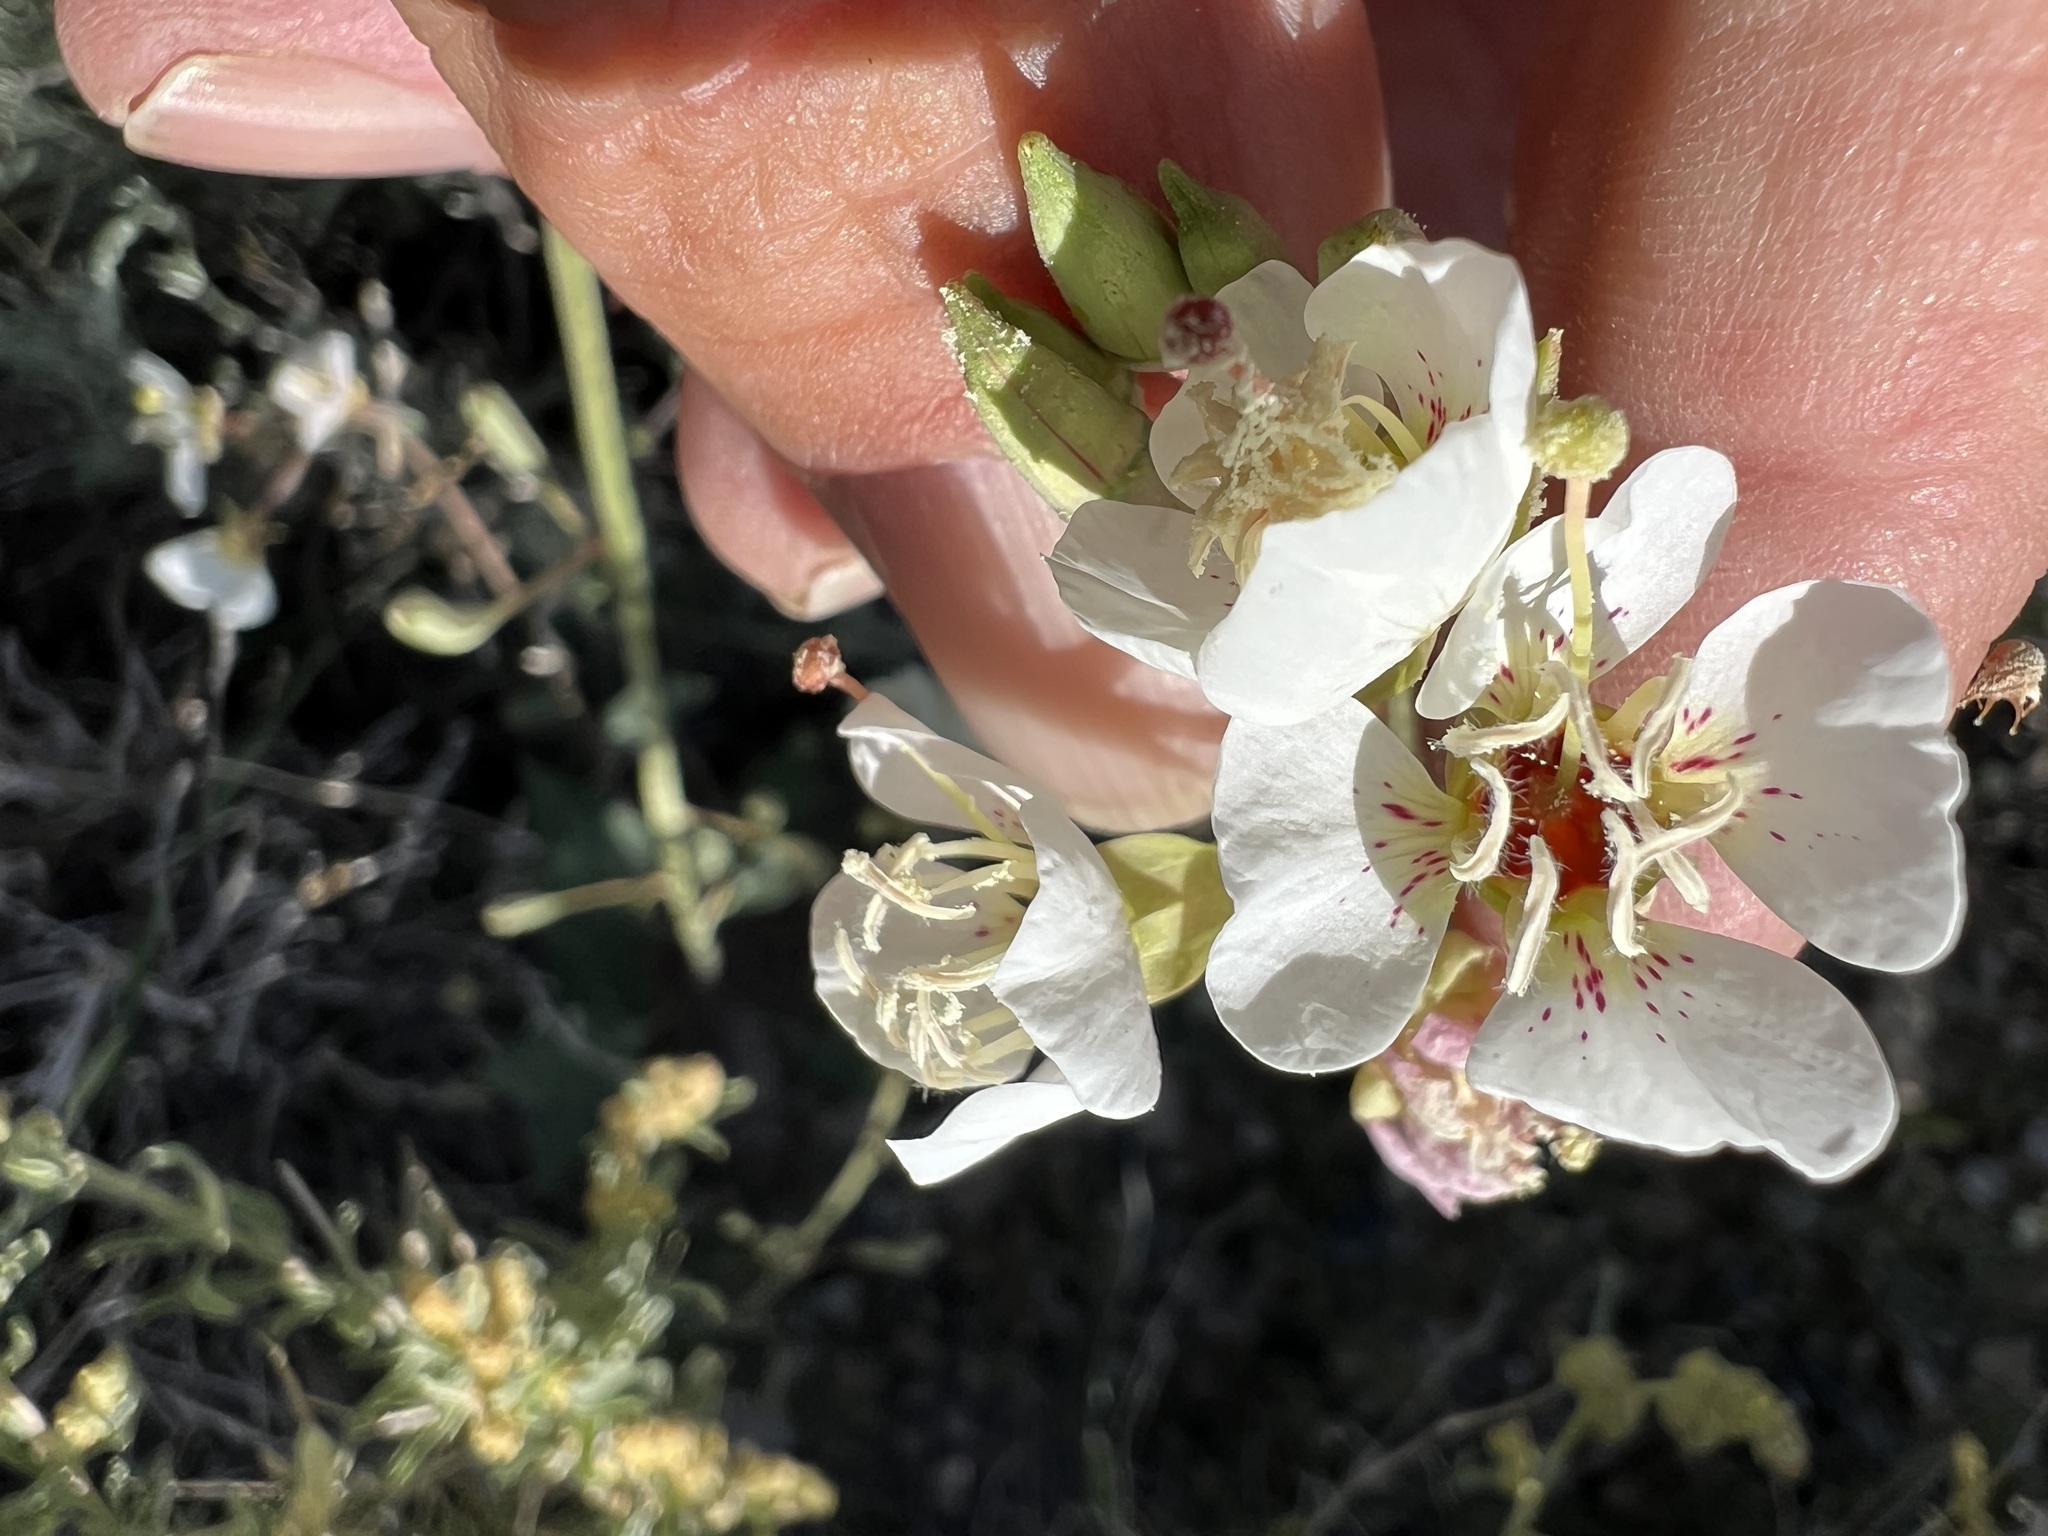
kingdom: Plantae
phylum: Tracheophyta
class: Magnoliopsida
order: Myrtales
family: Onagraceae
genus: Chylismia
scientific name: Chylismia claviformis
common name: Browneyes
